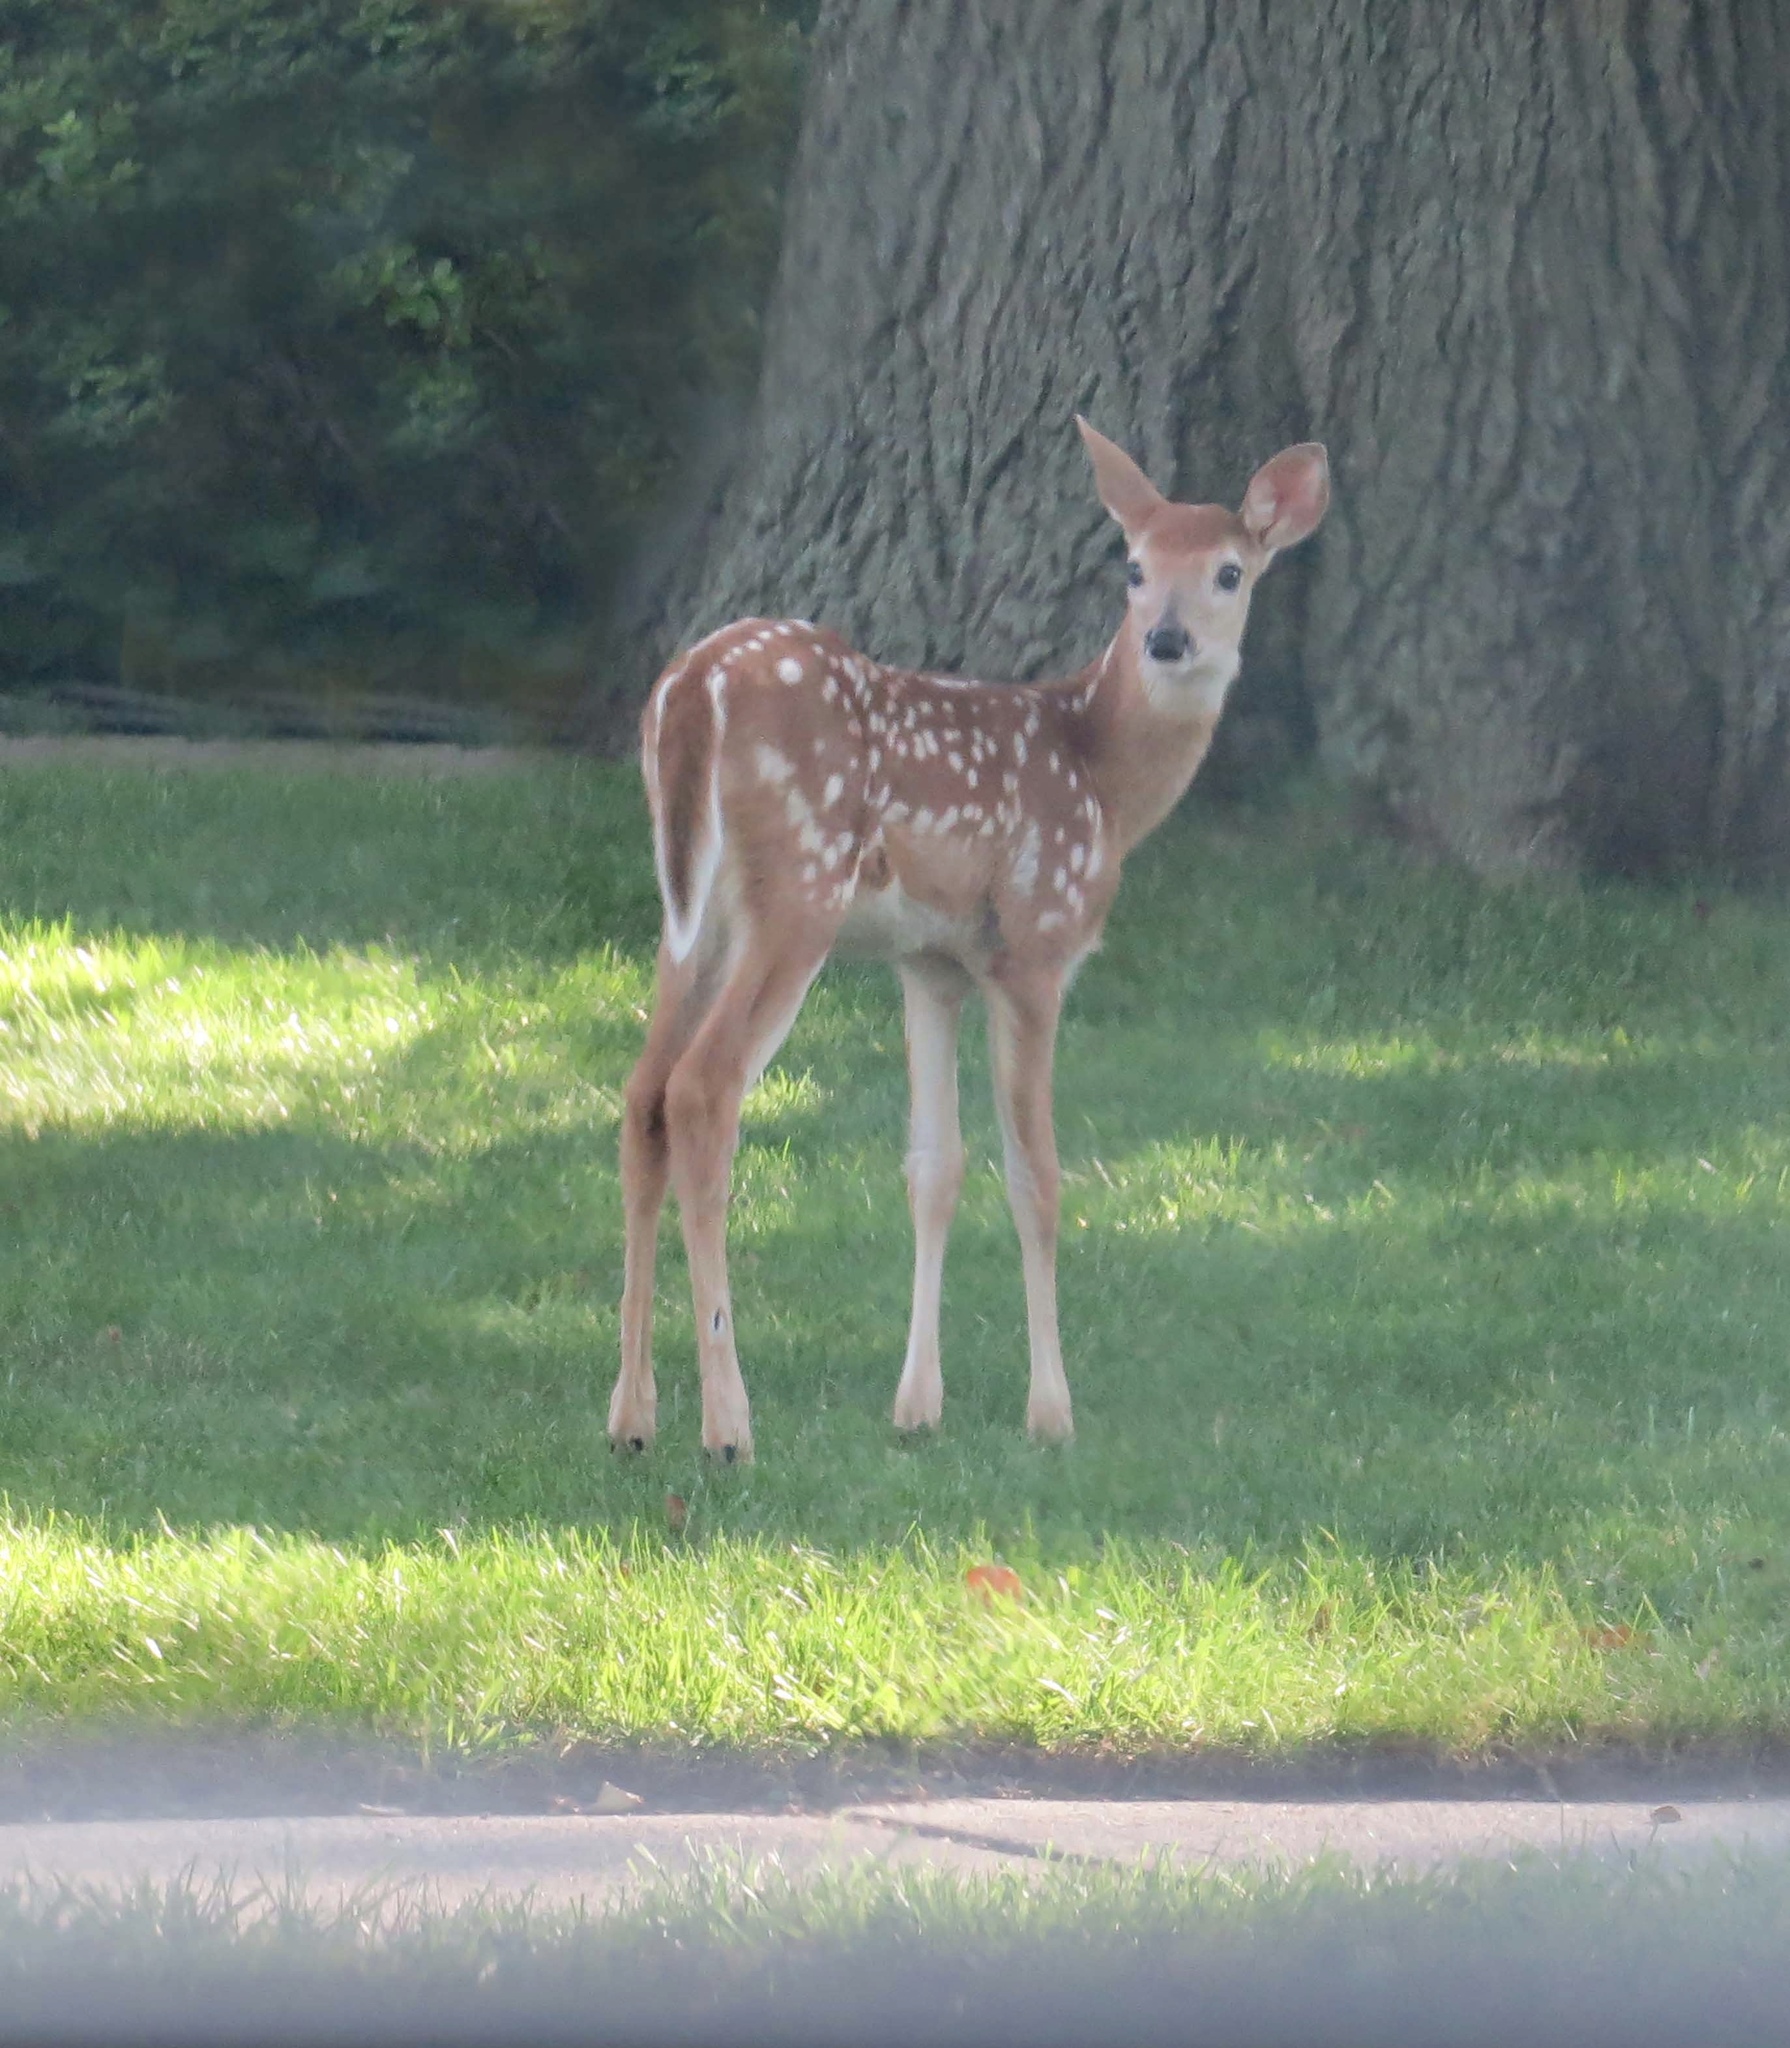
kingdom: Animalia
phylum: Chordata
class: Mammalia
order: Artiodactyla
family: Cervidae
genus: Odocoileus
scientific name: Odocoileus virginianus
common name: White-tailed deer
